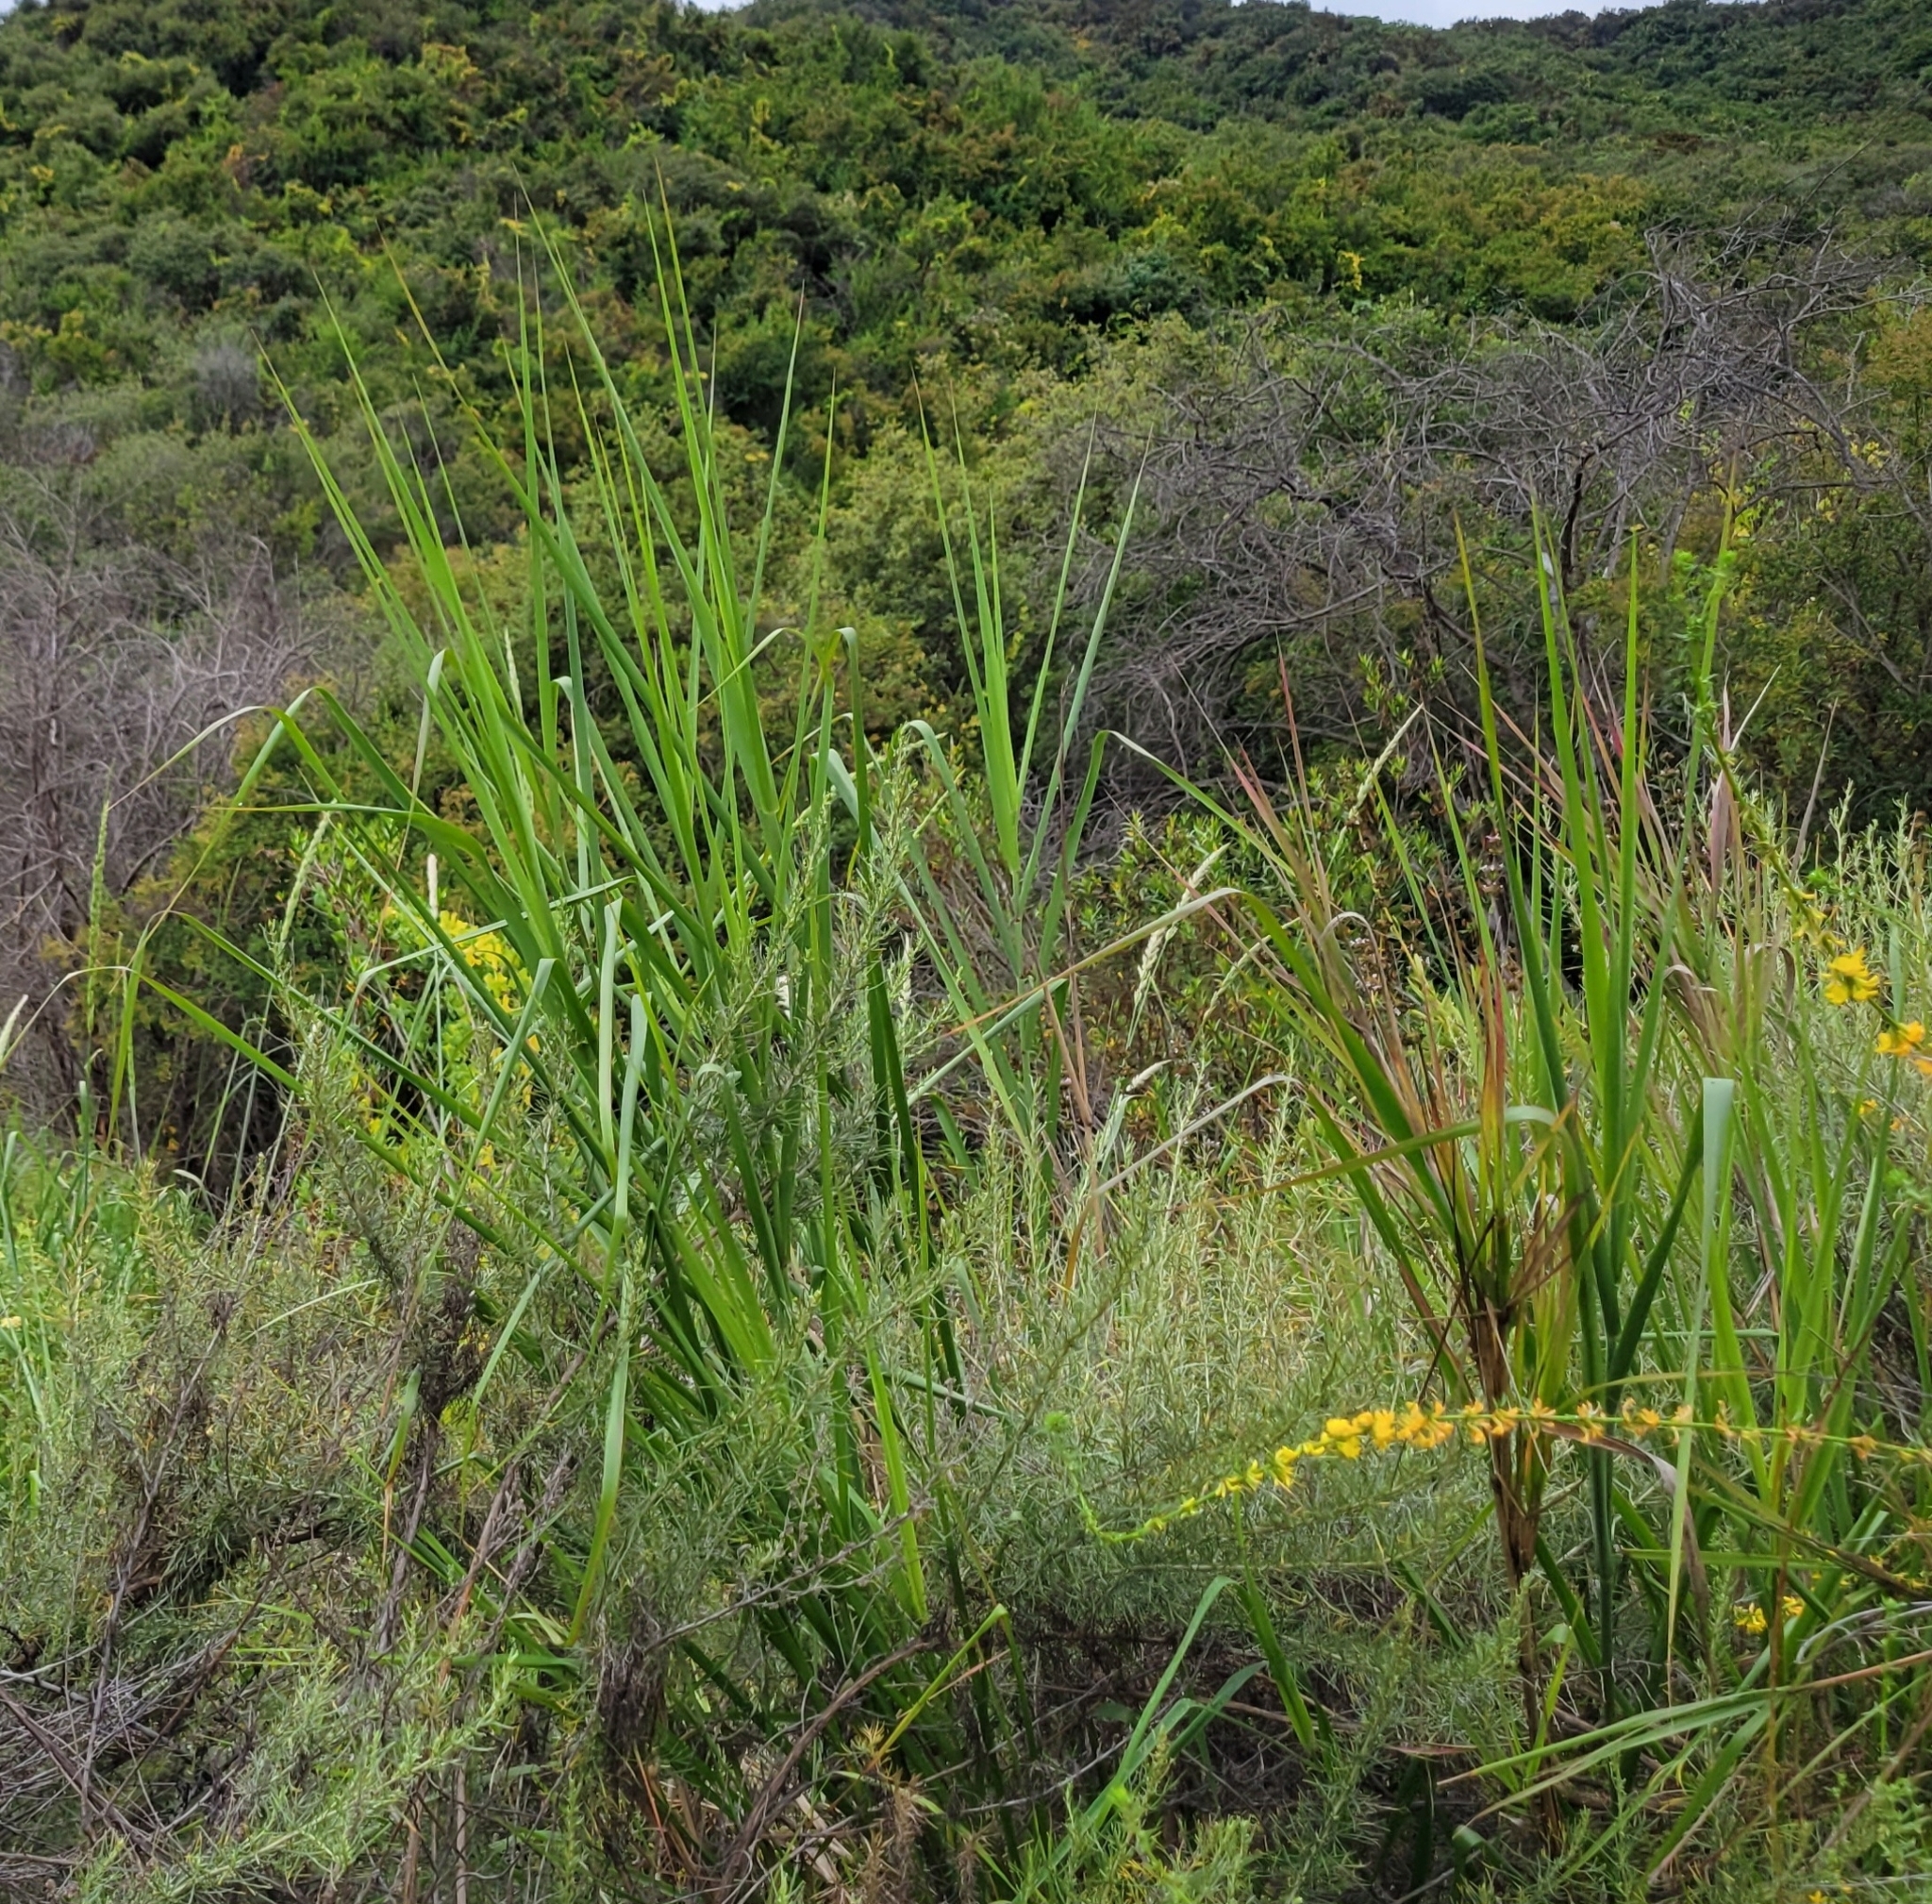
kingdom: Plantae
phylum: Tracheophyta
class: Liliopsida
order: Poales
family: Poaceae
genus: Leymus
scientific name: Leymus condensatus
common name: Giant wild rye
